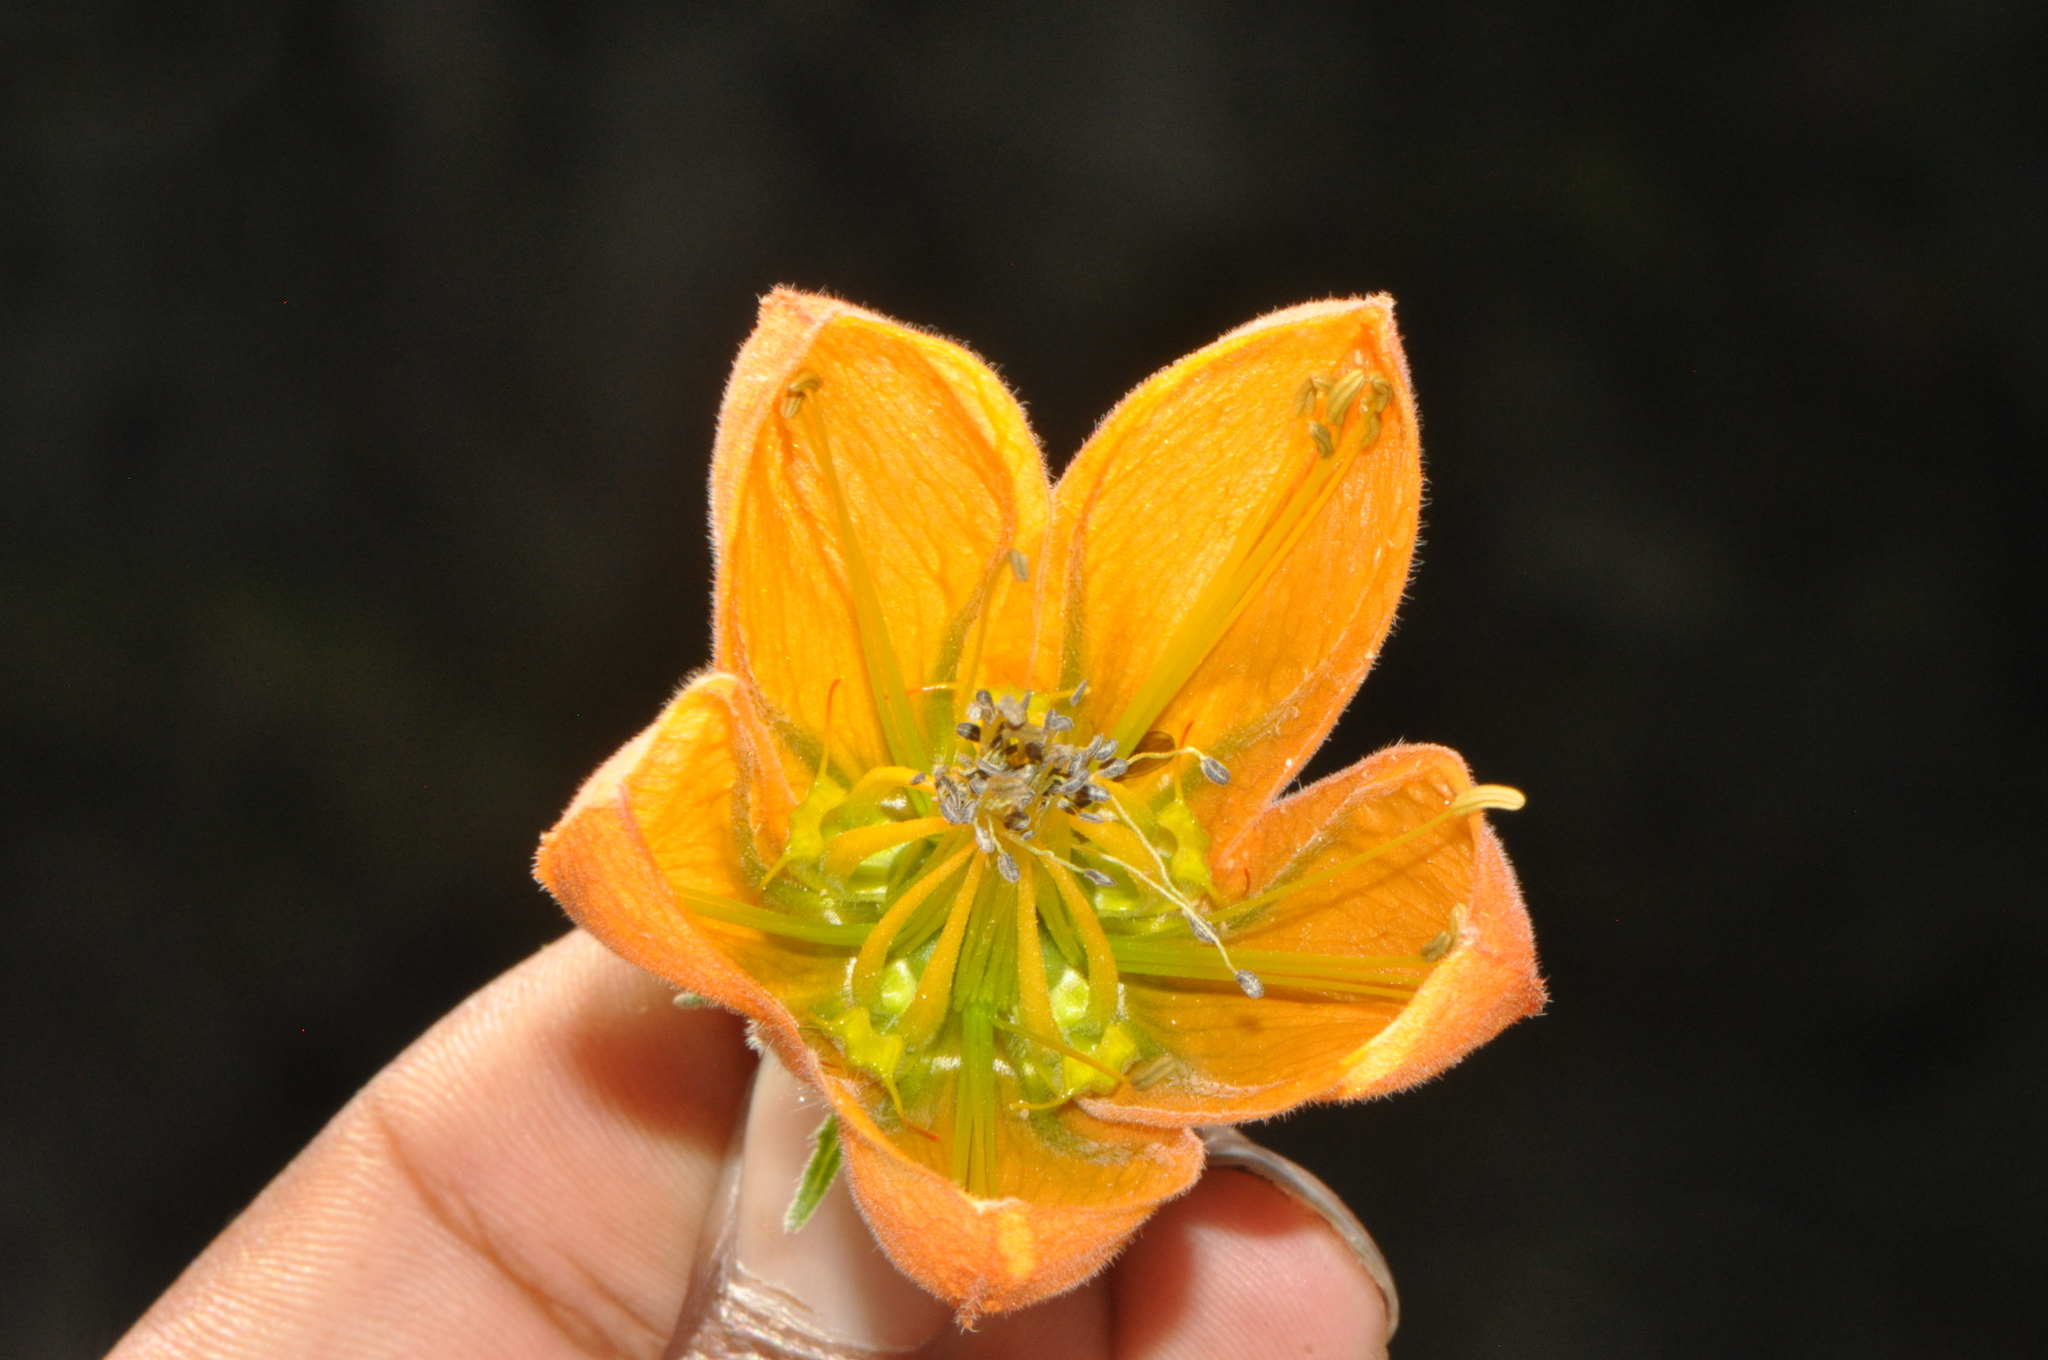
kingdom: Plantae
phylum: Tracheophyta
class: Magnoliopsida
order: Cornales
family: Loasaceae
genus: Caiophora
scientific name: Caiophora canarinoides
